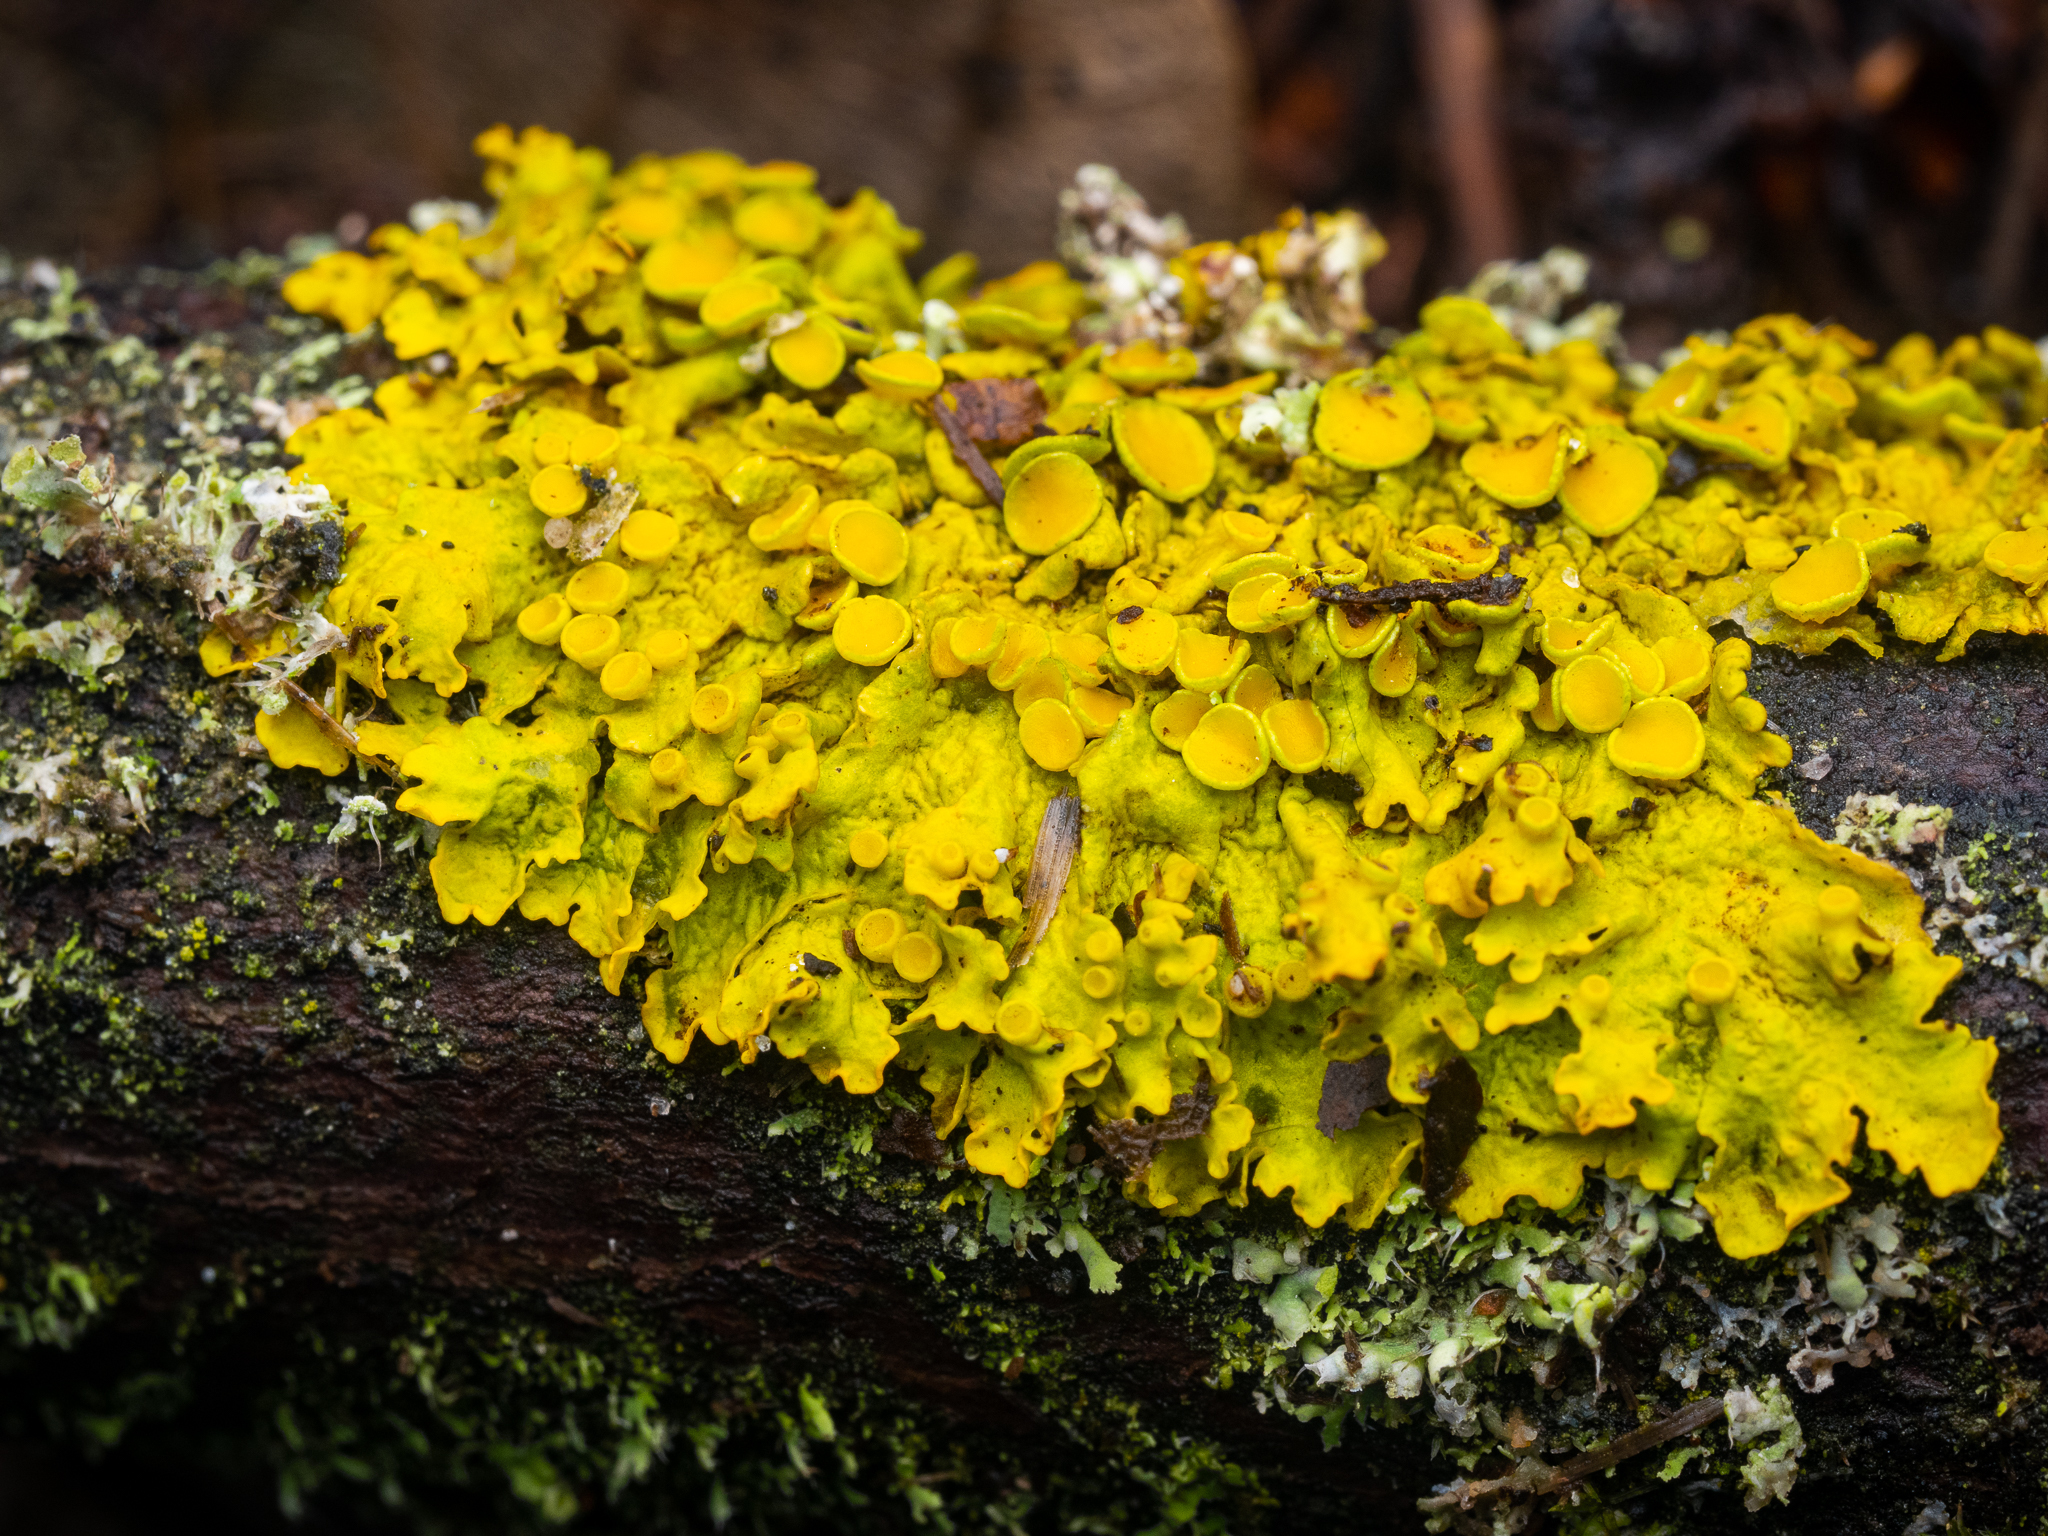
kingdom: Fungi
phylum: Ascomycota
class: Lecanoromycetes
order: Teloschistales
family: Teloschistaceae
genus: Xanthoria
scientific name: Xanthoria parietina
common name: Common orange lichen
